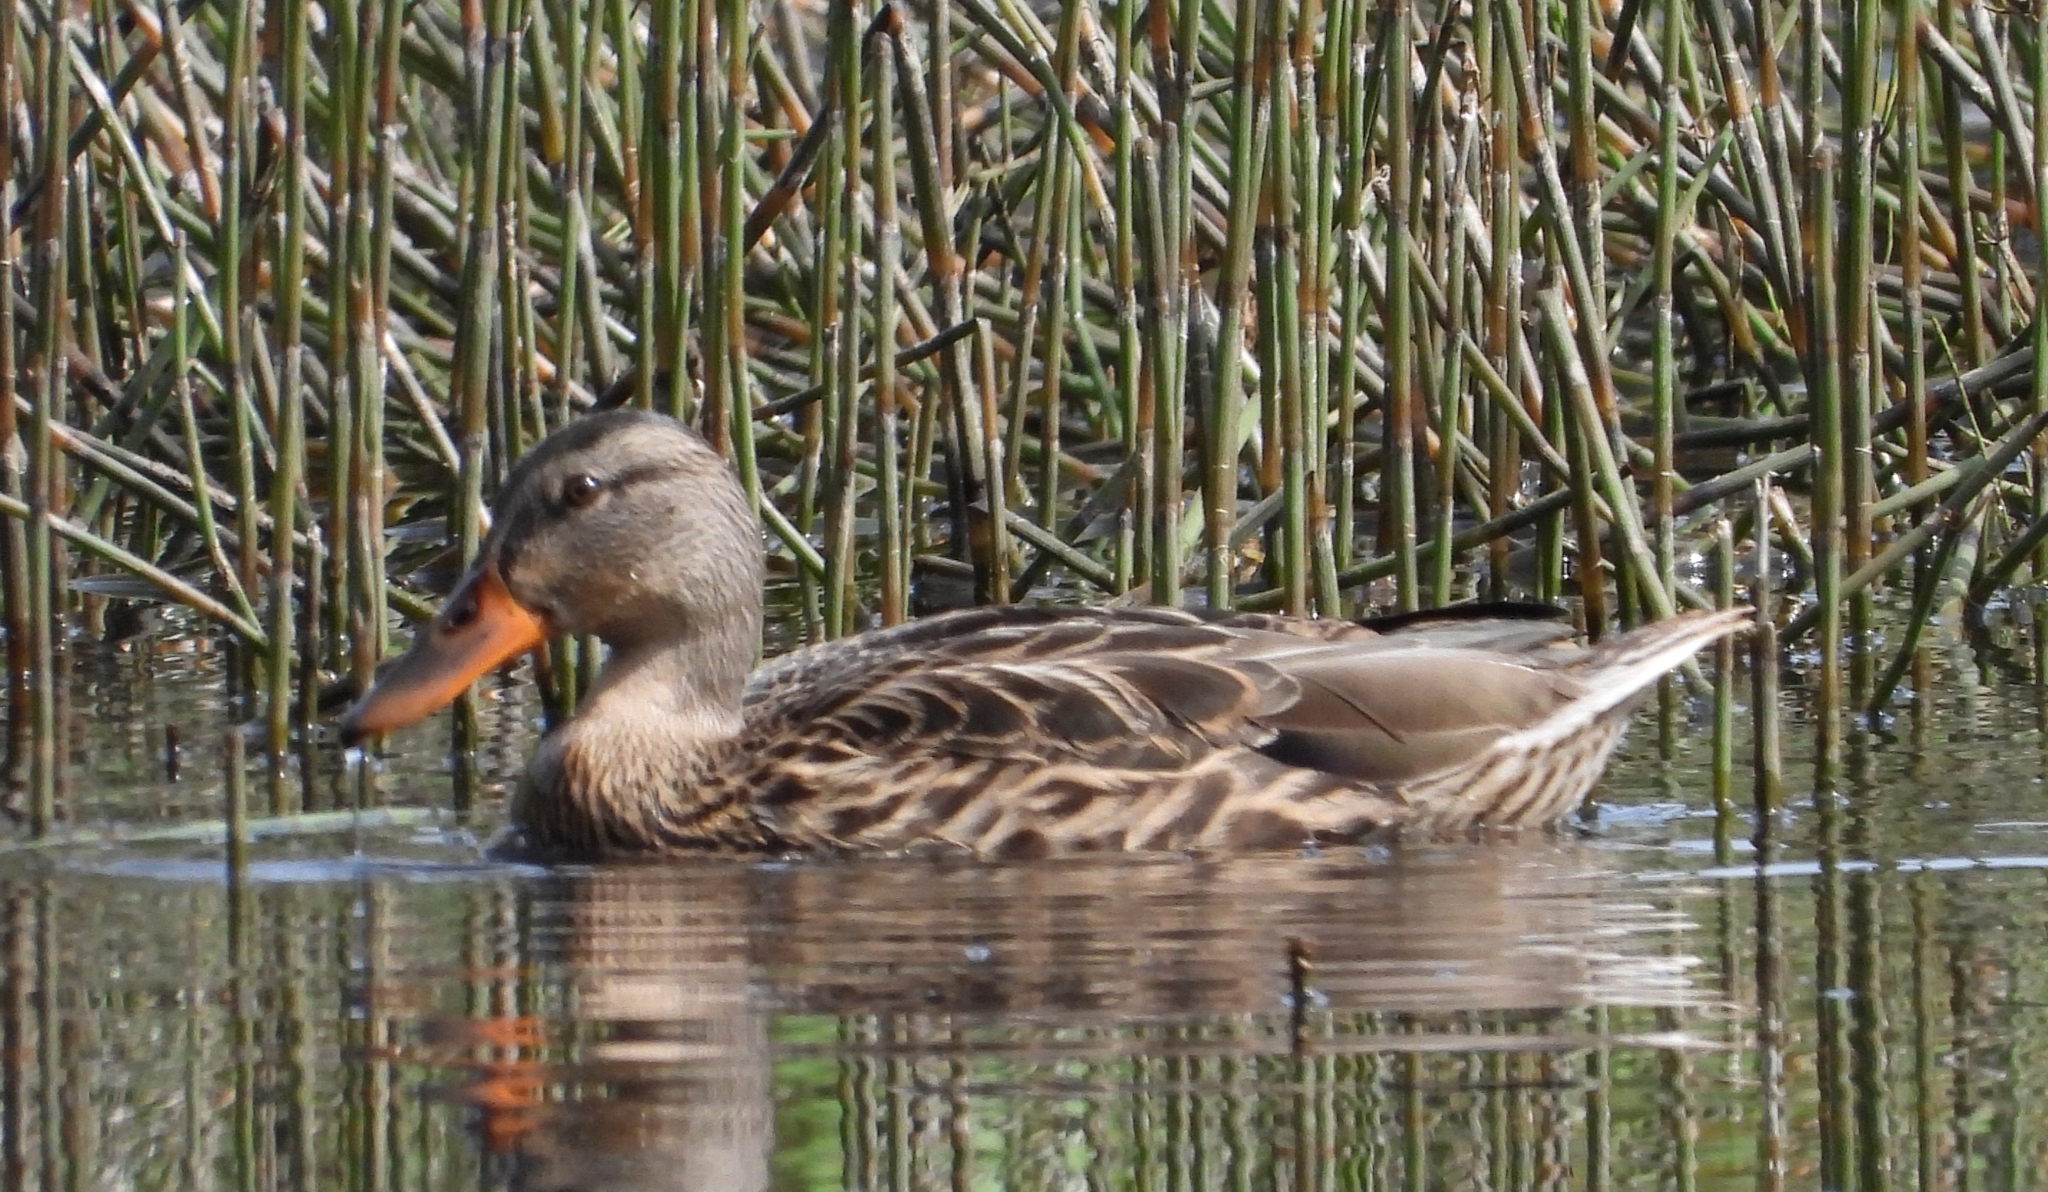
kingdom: Animalia
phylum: Chordata
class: Aves
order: Anseriformes
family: Anatidae
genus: Anas
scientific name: Anas platyrhynchos
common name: Mallard
